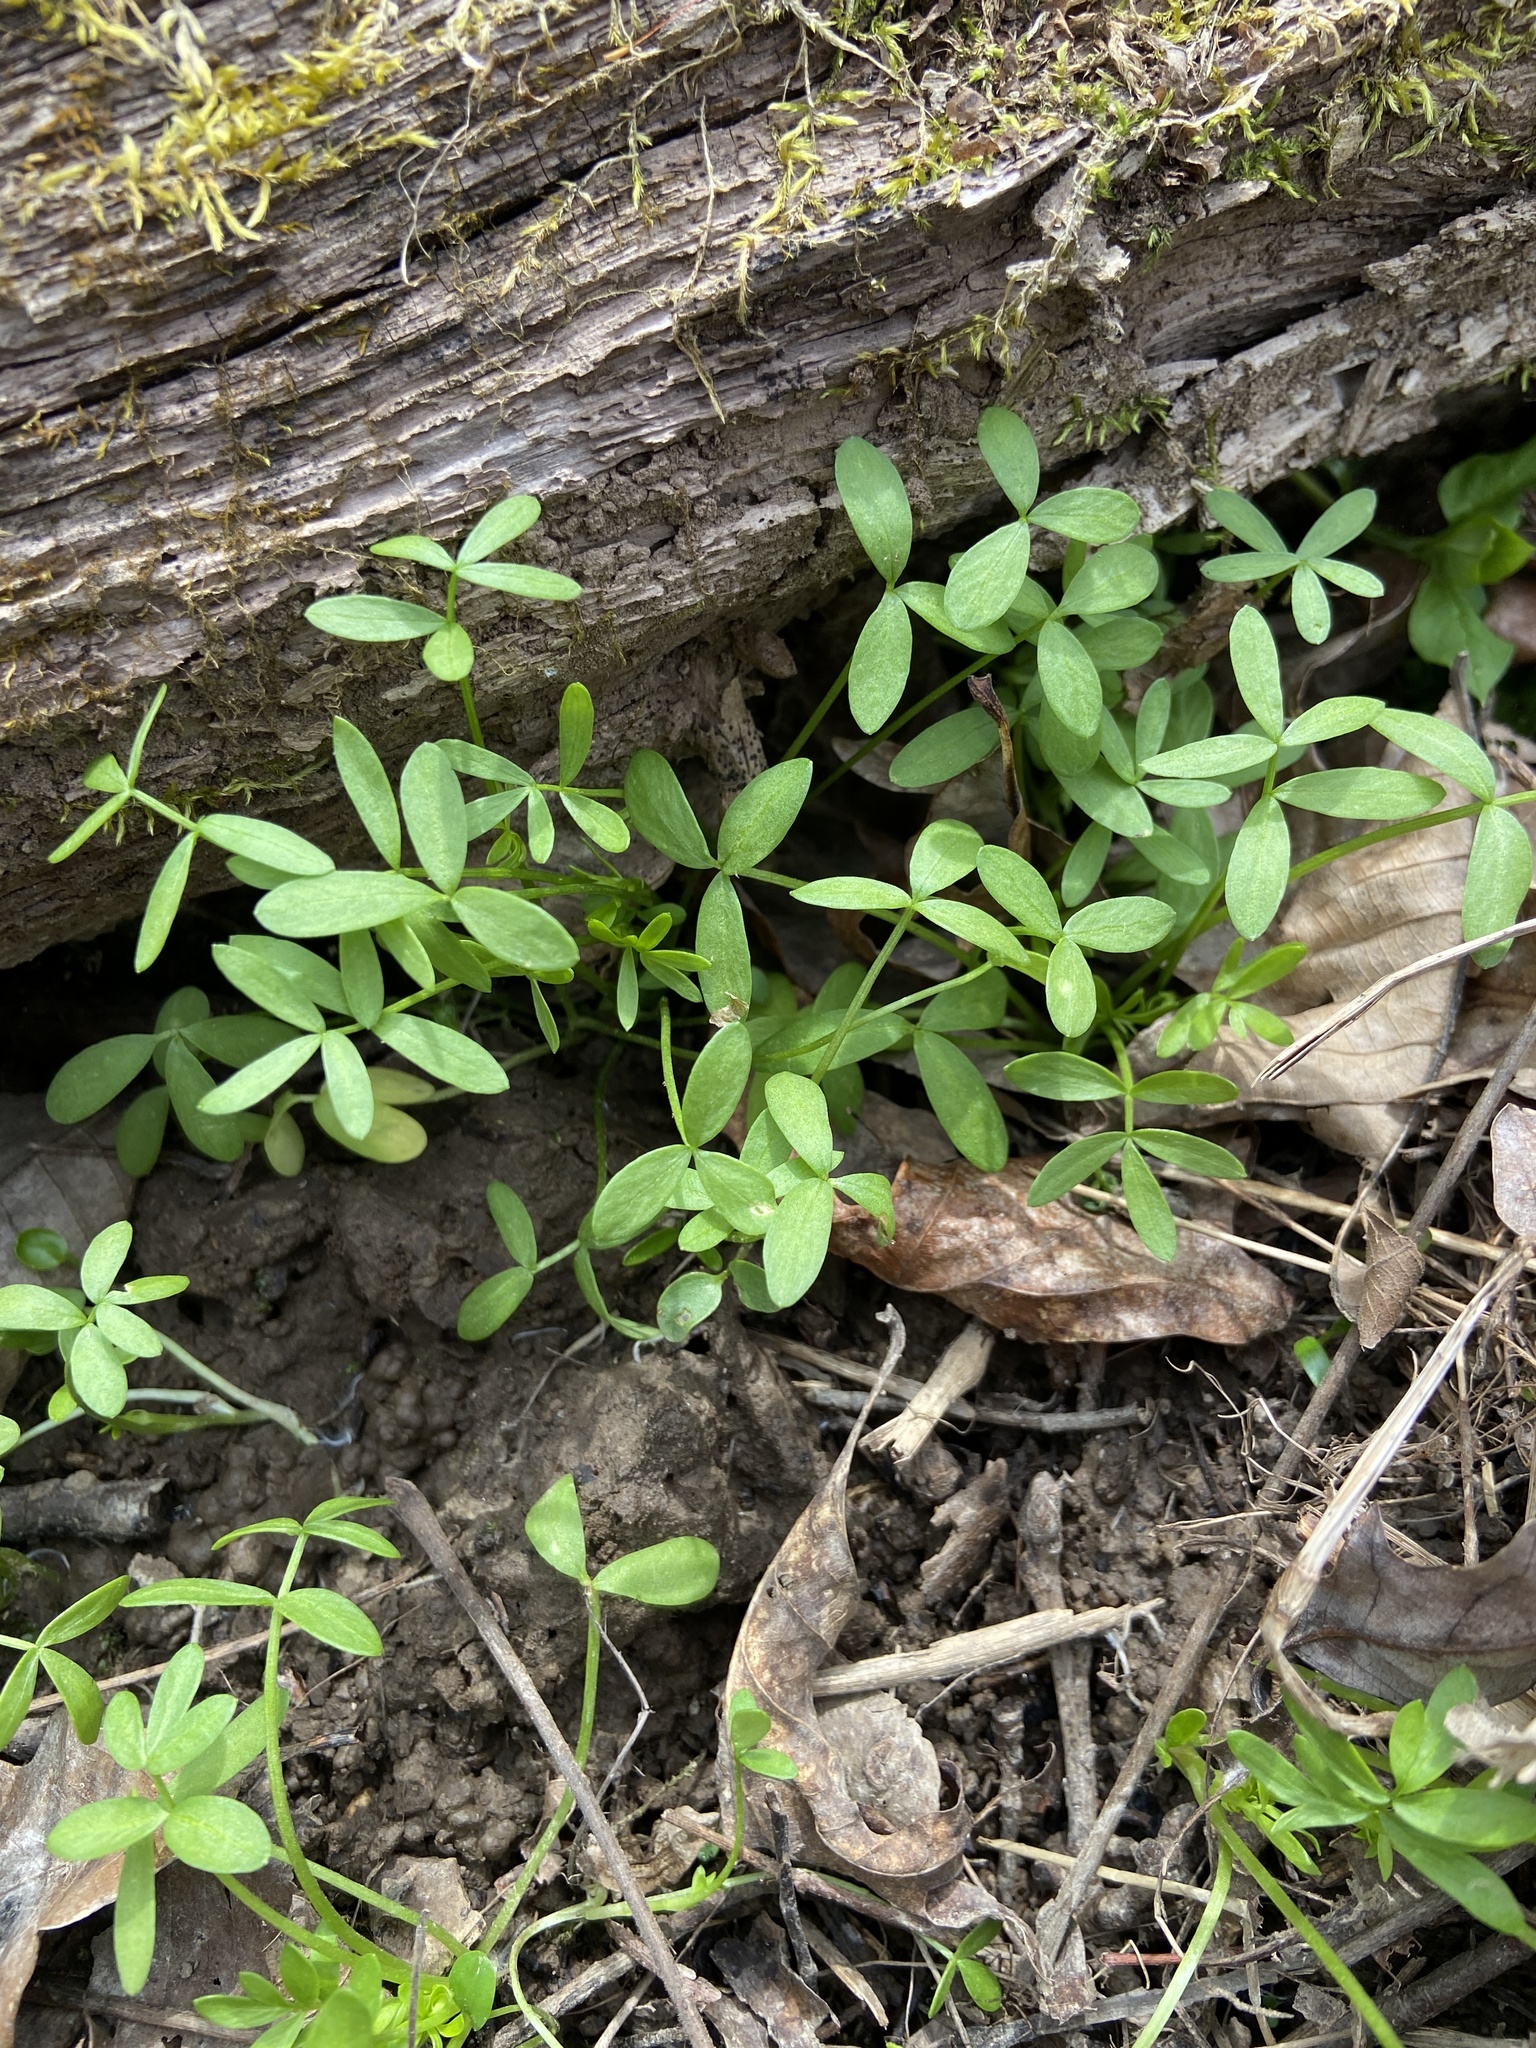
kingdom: Plantae
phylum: Tracheophyta
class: Magnoliopsida
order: Brassicales
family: Limnanthaceae
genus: Floerkea
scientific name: Floerkea proserpinacoides
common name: False mermaid
